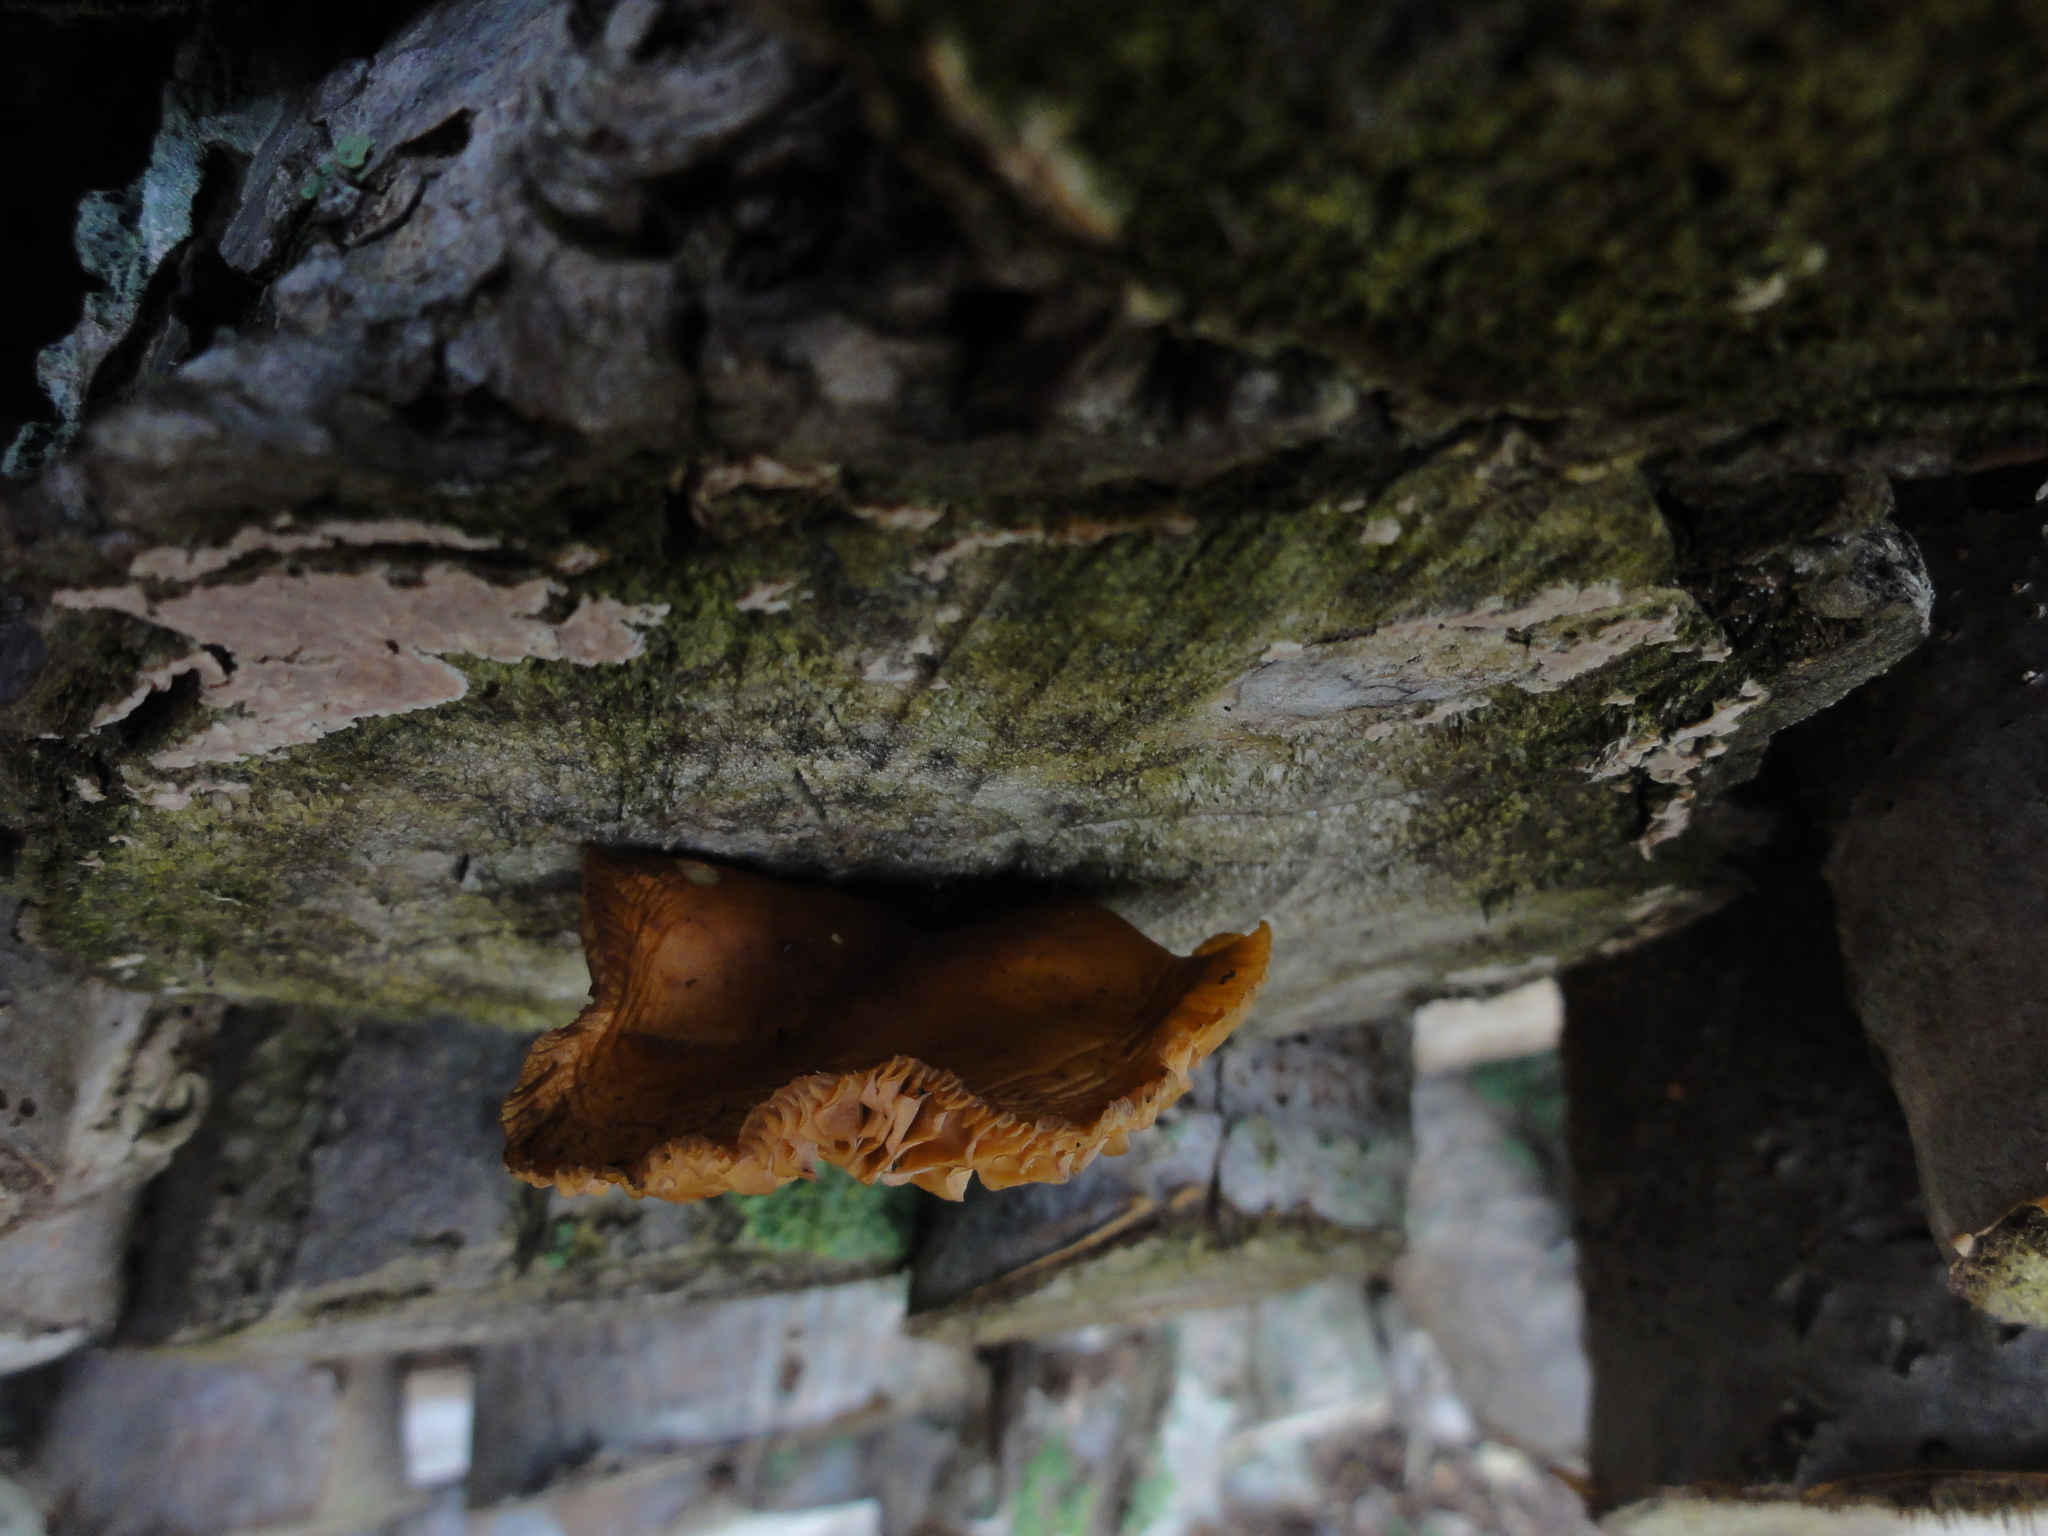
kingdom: Fungi
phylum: Basidiomycota
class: Agaricomycetes
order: Agaricales
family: Physalacriaceae
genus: Flammulina
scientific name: Flammulina
